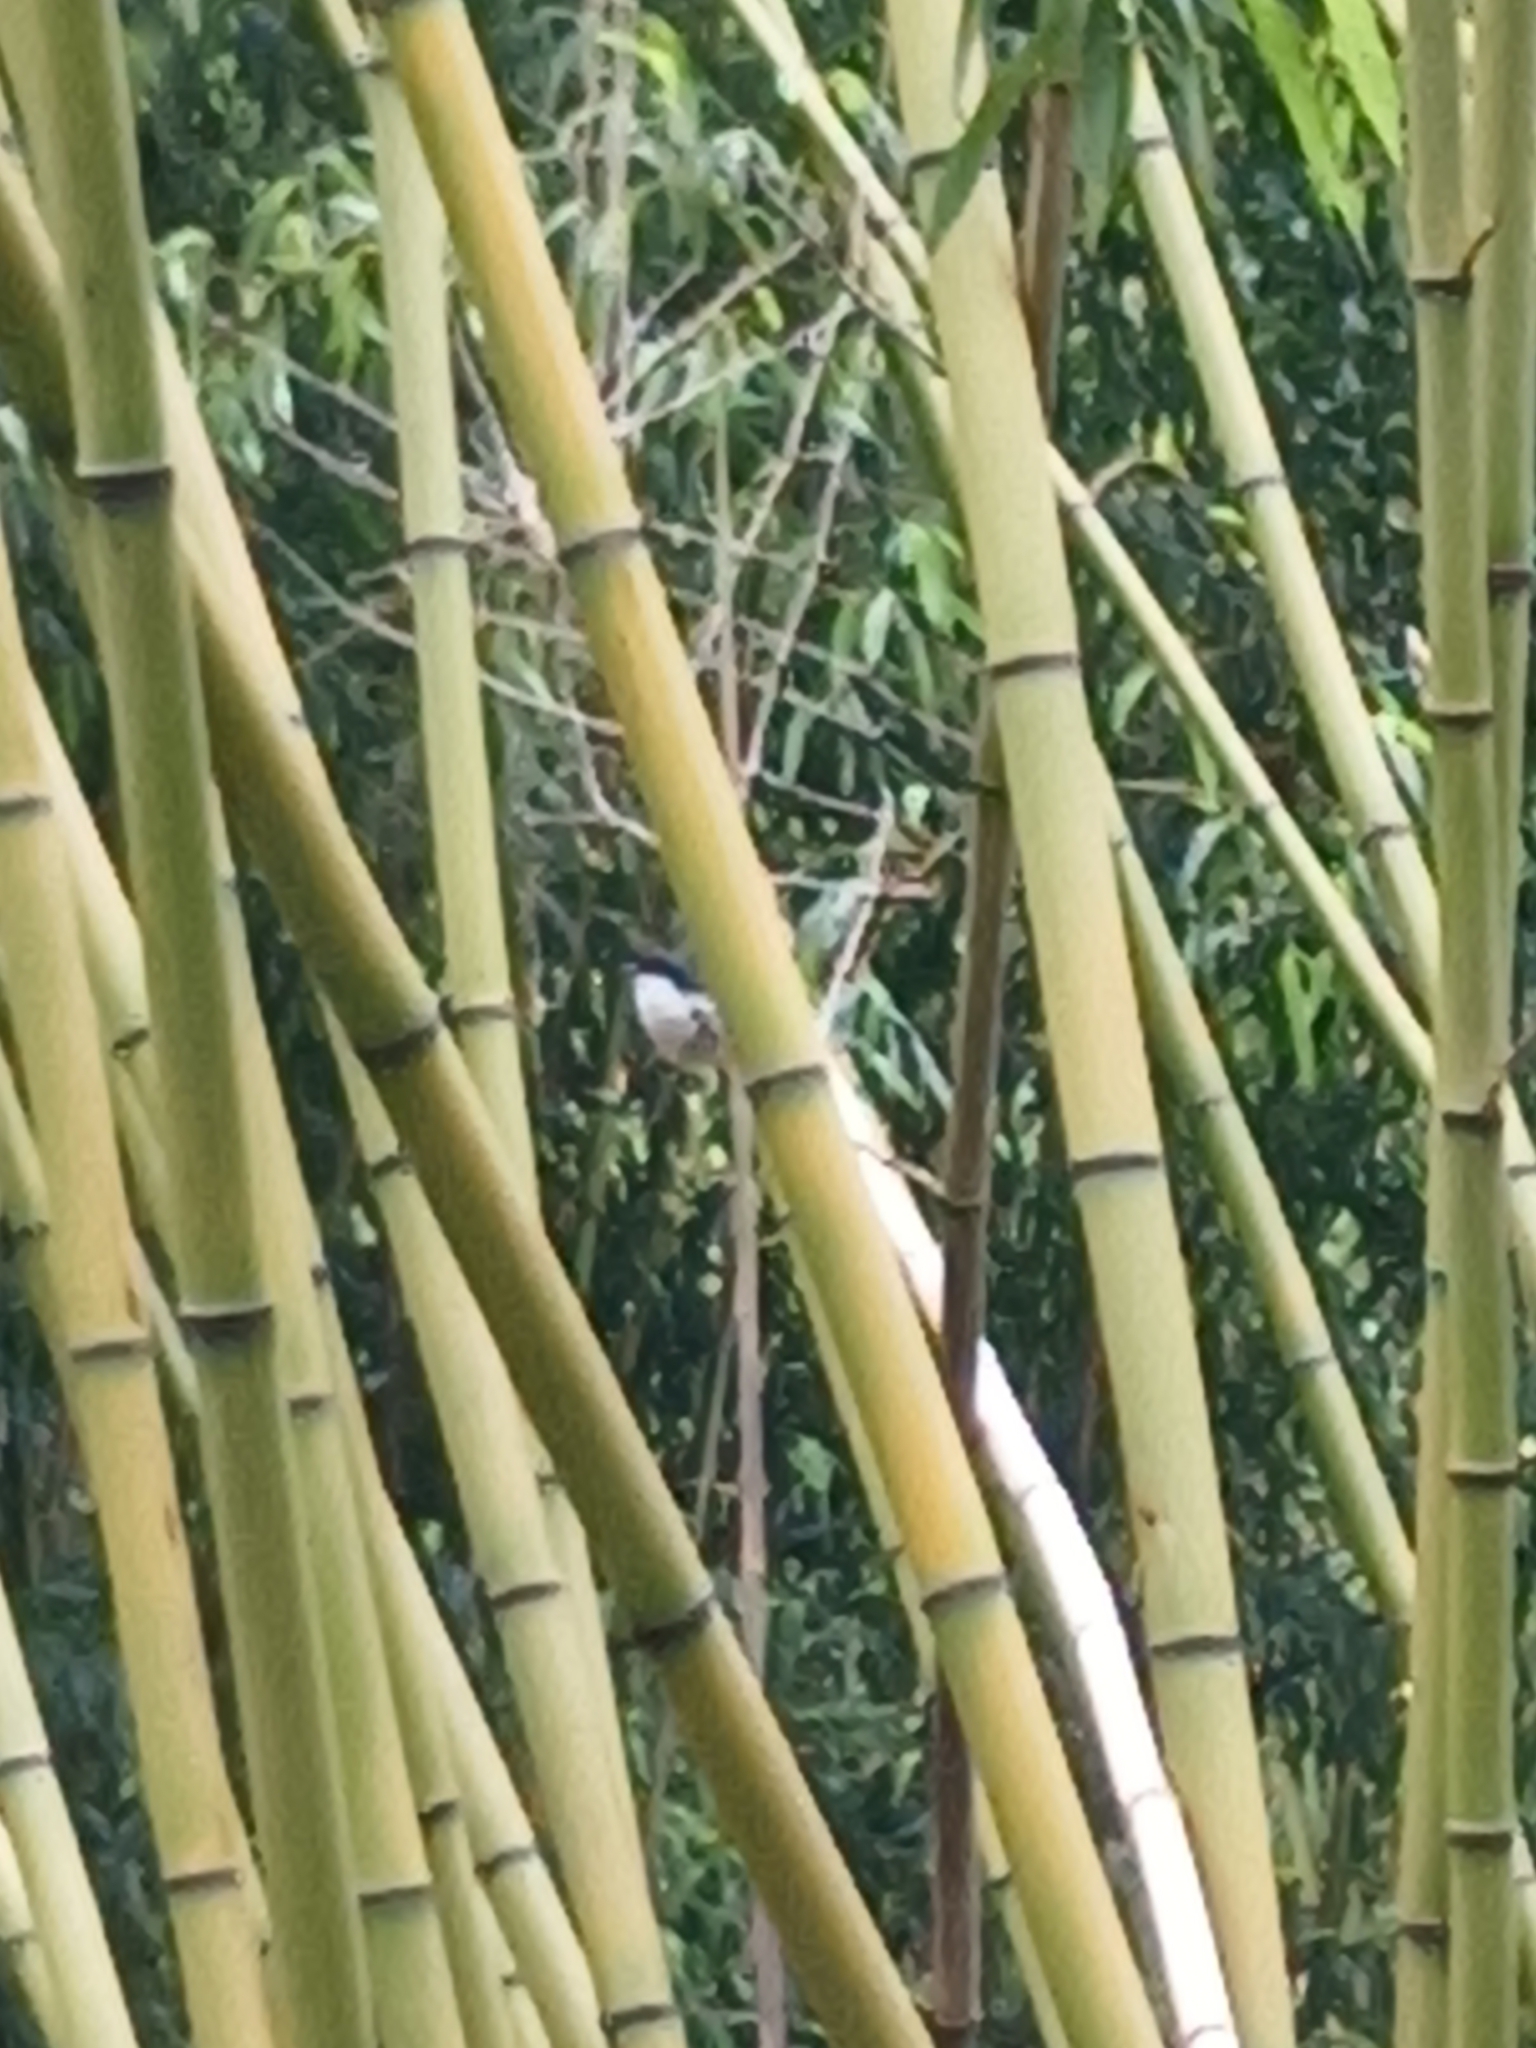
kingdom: Animalia
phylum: Chordata
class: Aves
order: Passeriformes
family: Malaconotidae
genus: Dryoscopus
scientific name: Dryoscopus cubla
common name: Black-backed puffback
